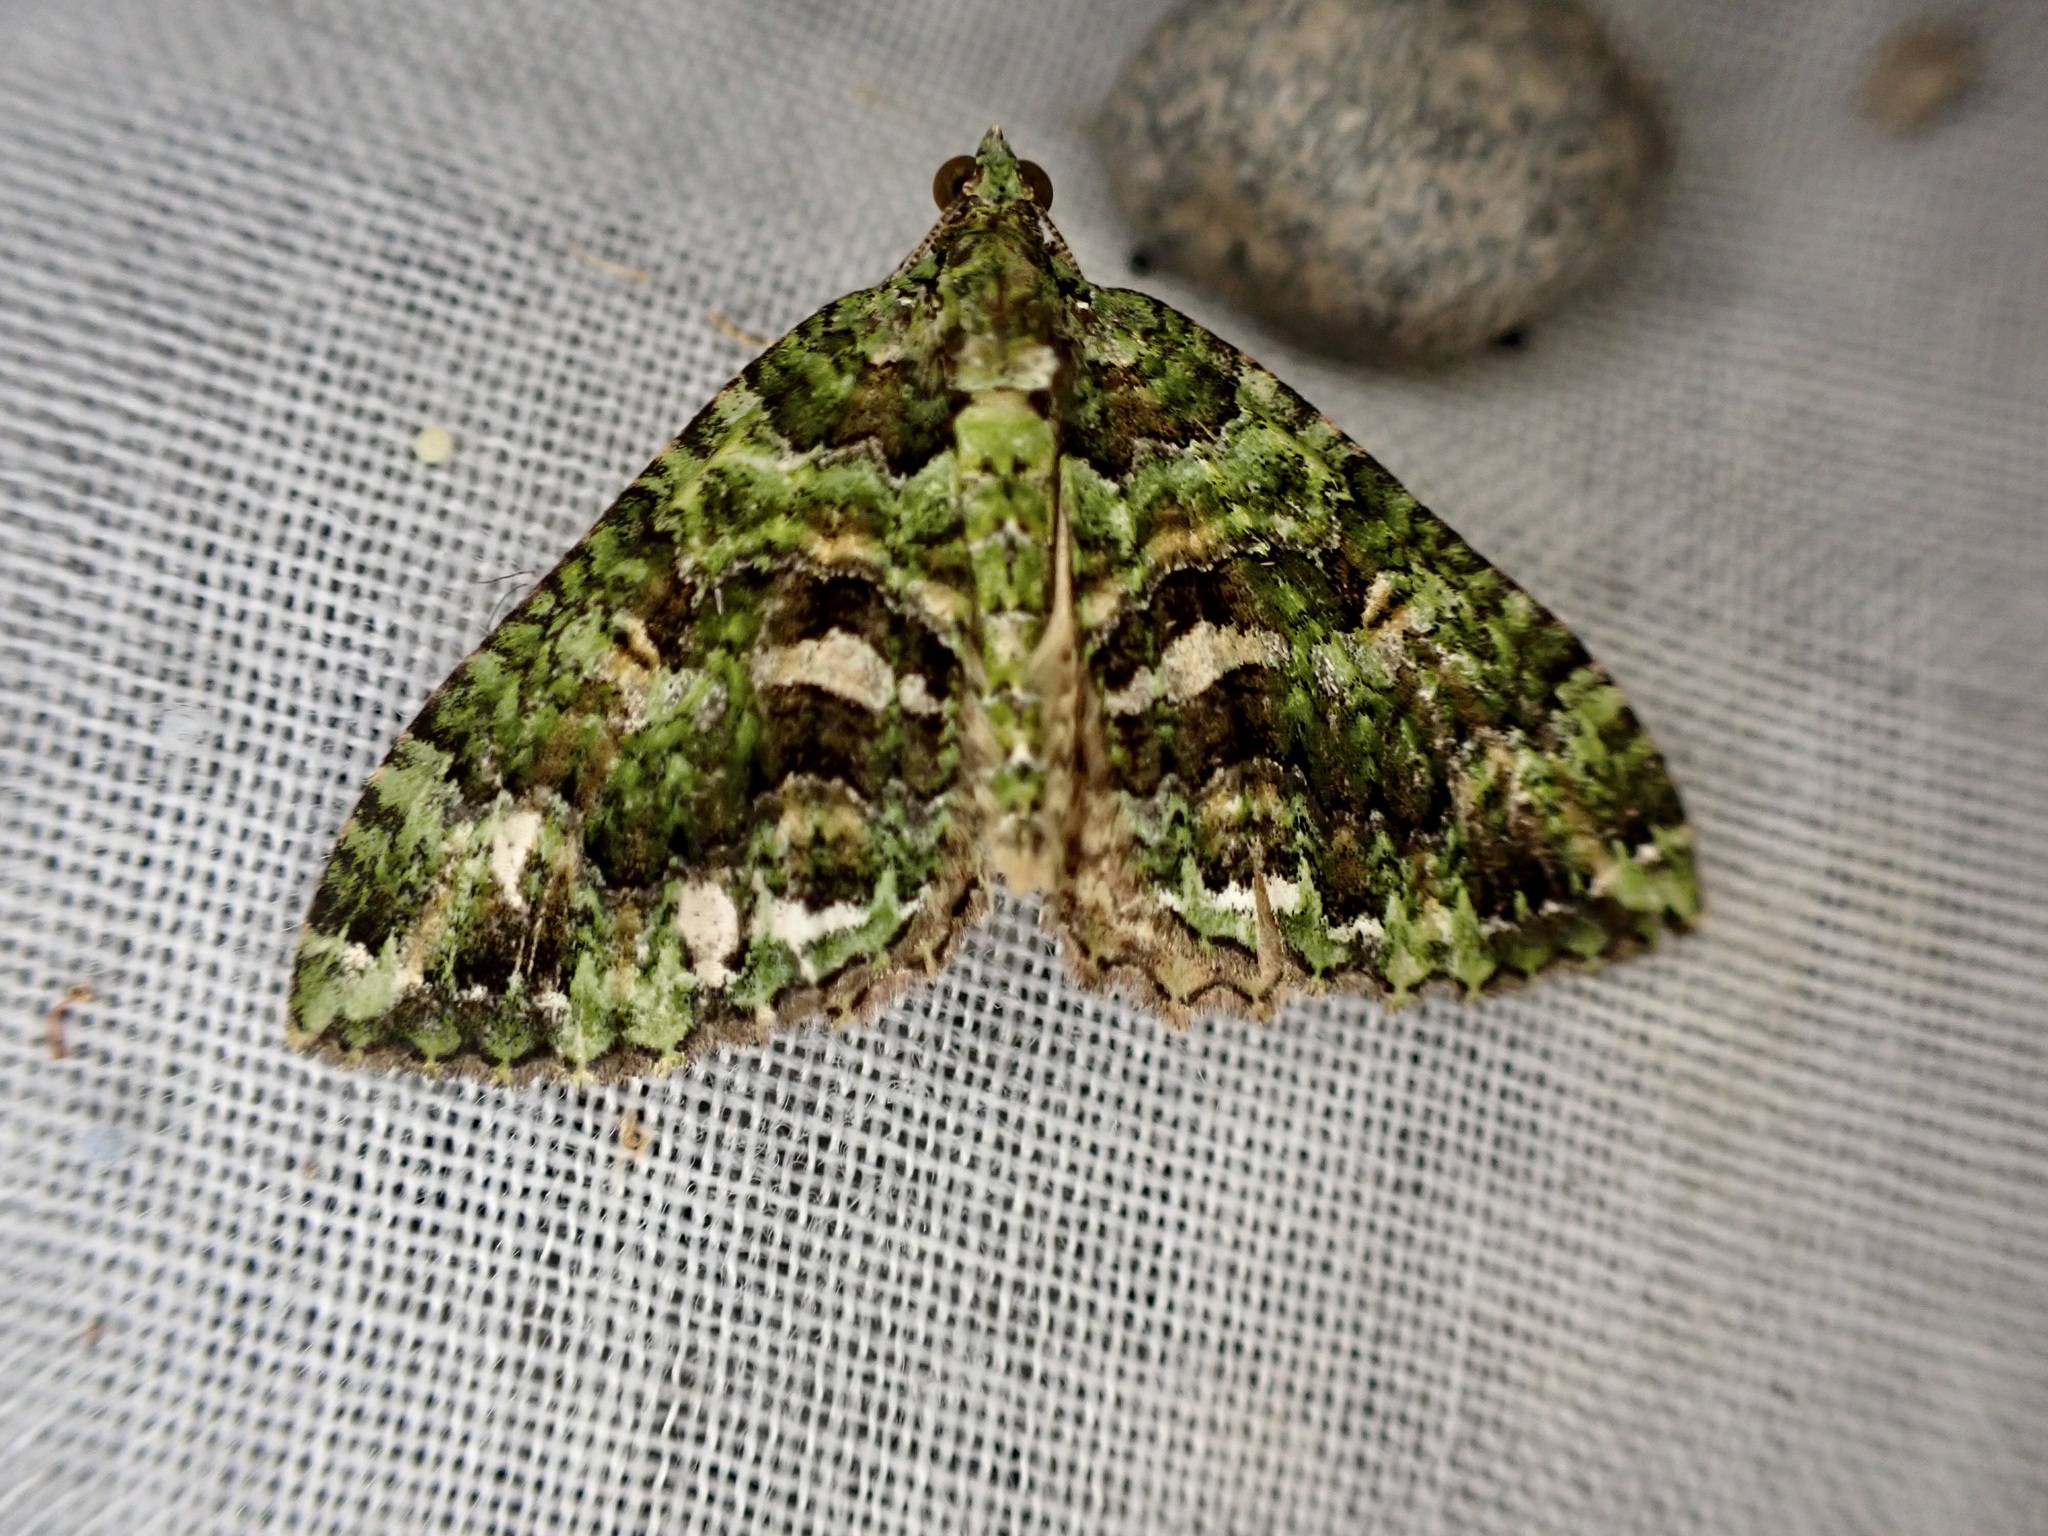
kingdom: Animalia
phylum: Arthropoda
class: Insecta
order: Lepidoptera
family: Geometridae
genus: Austrocidaria
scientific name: Austrocidaria similata
